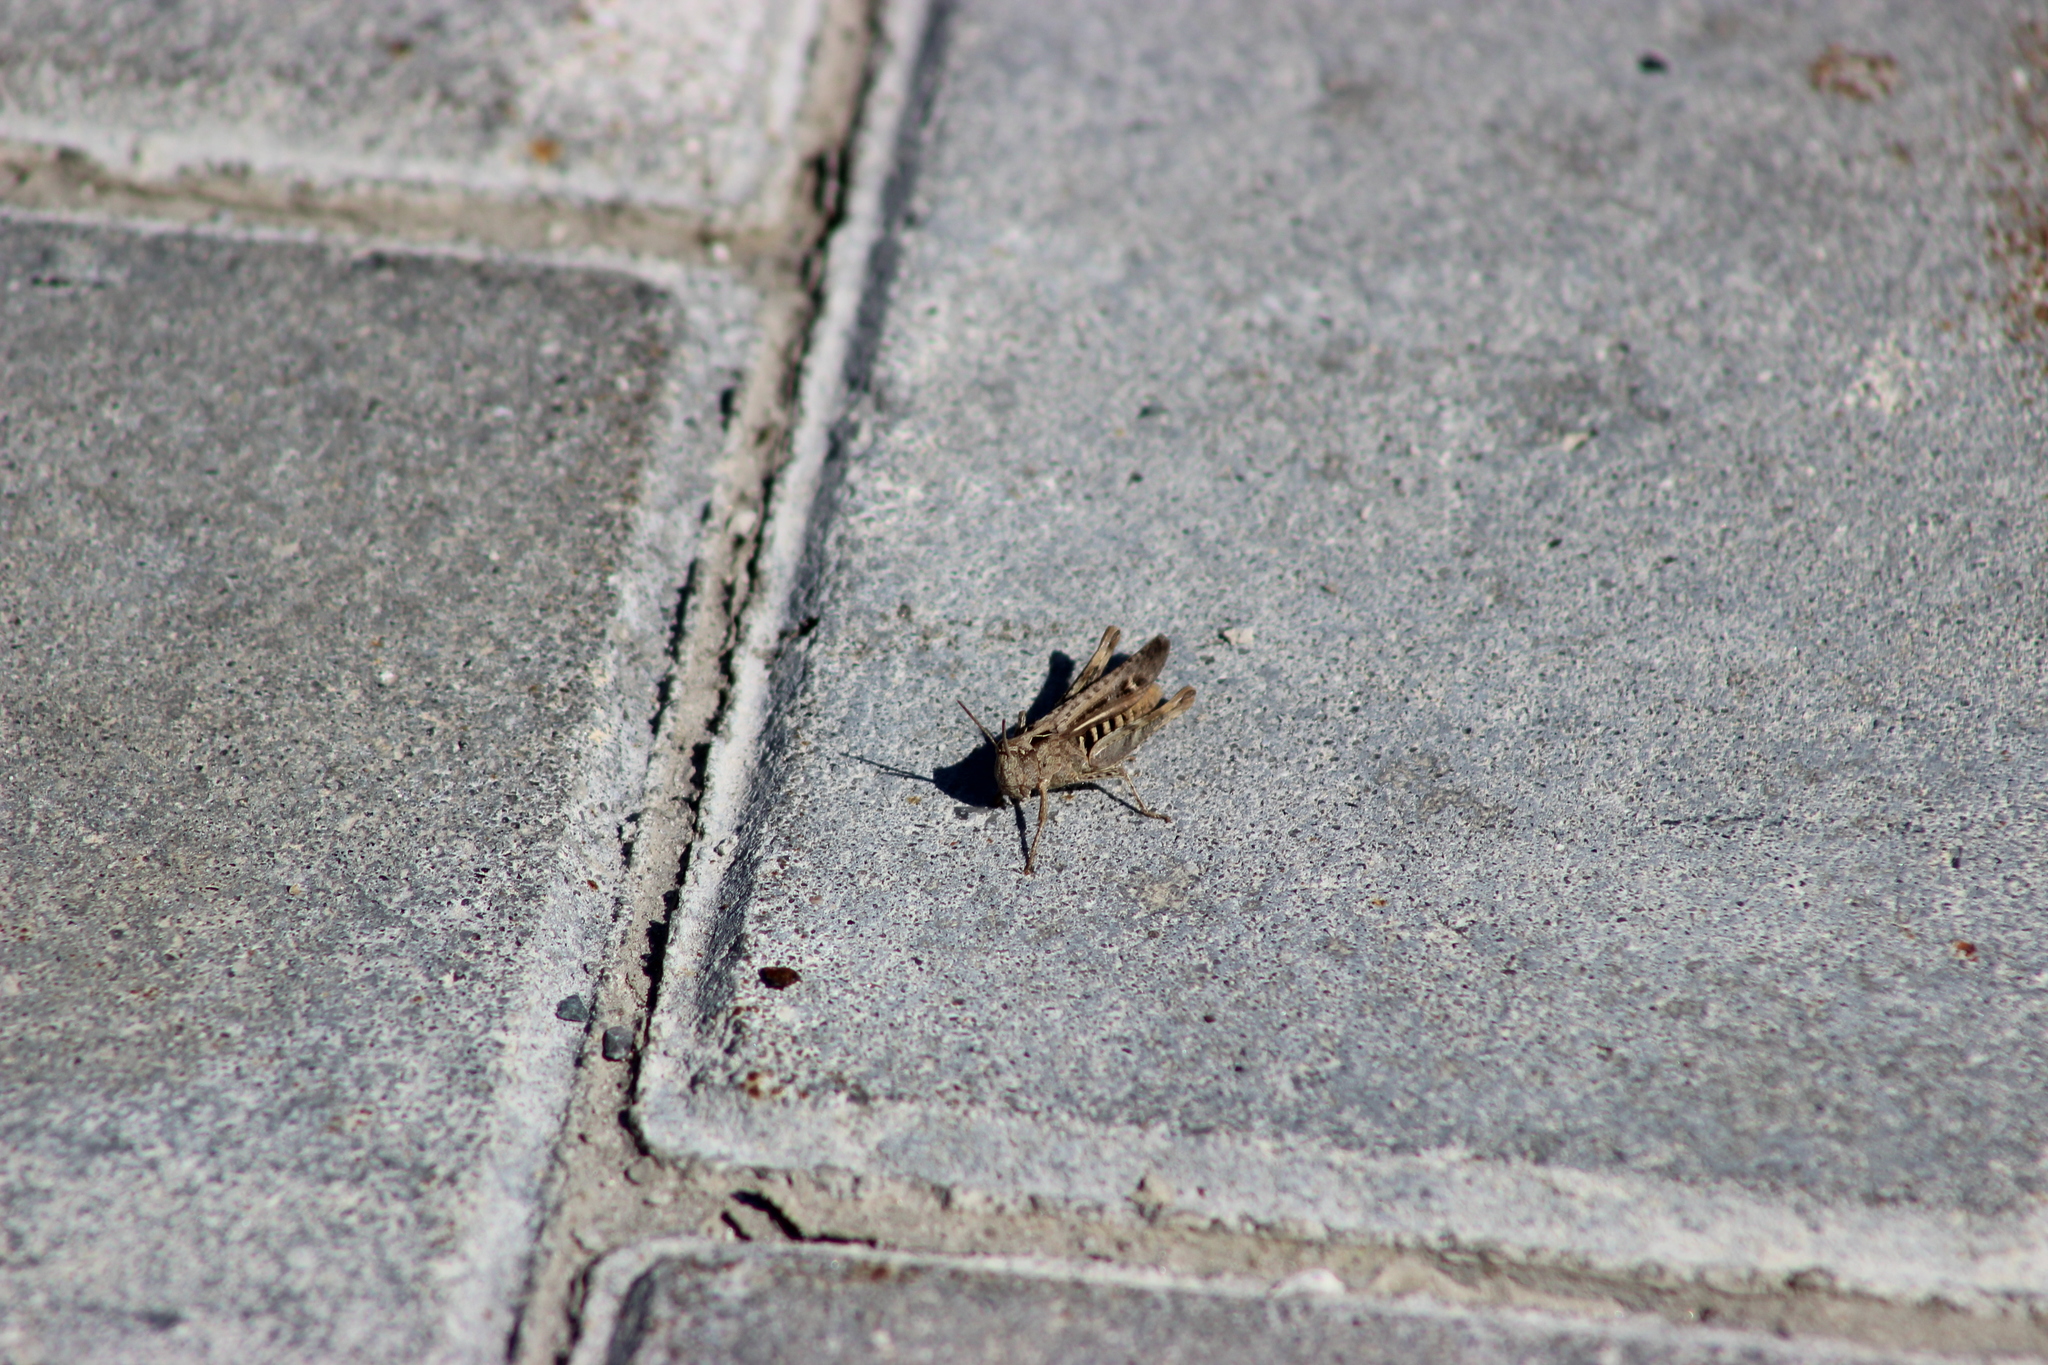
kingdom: Animalia
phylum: Arthropoda
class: Insecta
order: Orthoptera
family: Acrididae
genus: Chorthippus
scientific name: Chorthippus biguttulus
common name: Bow-winged grasshopper
